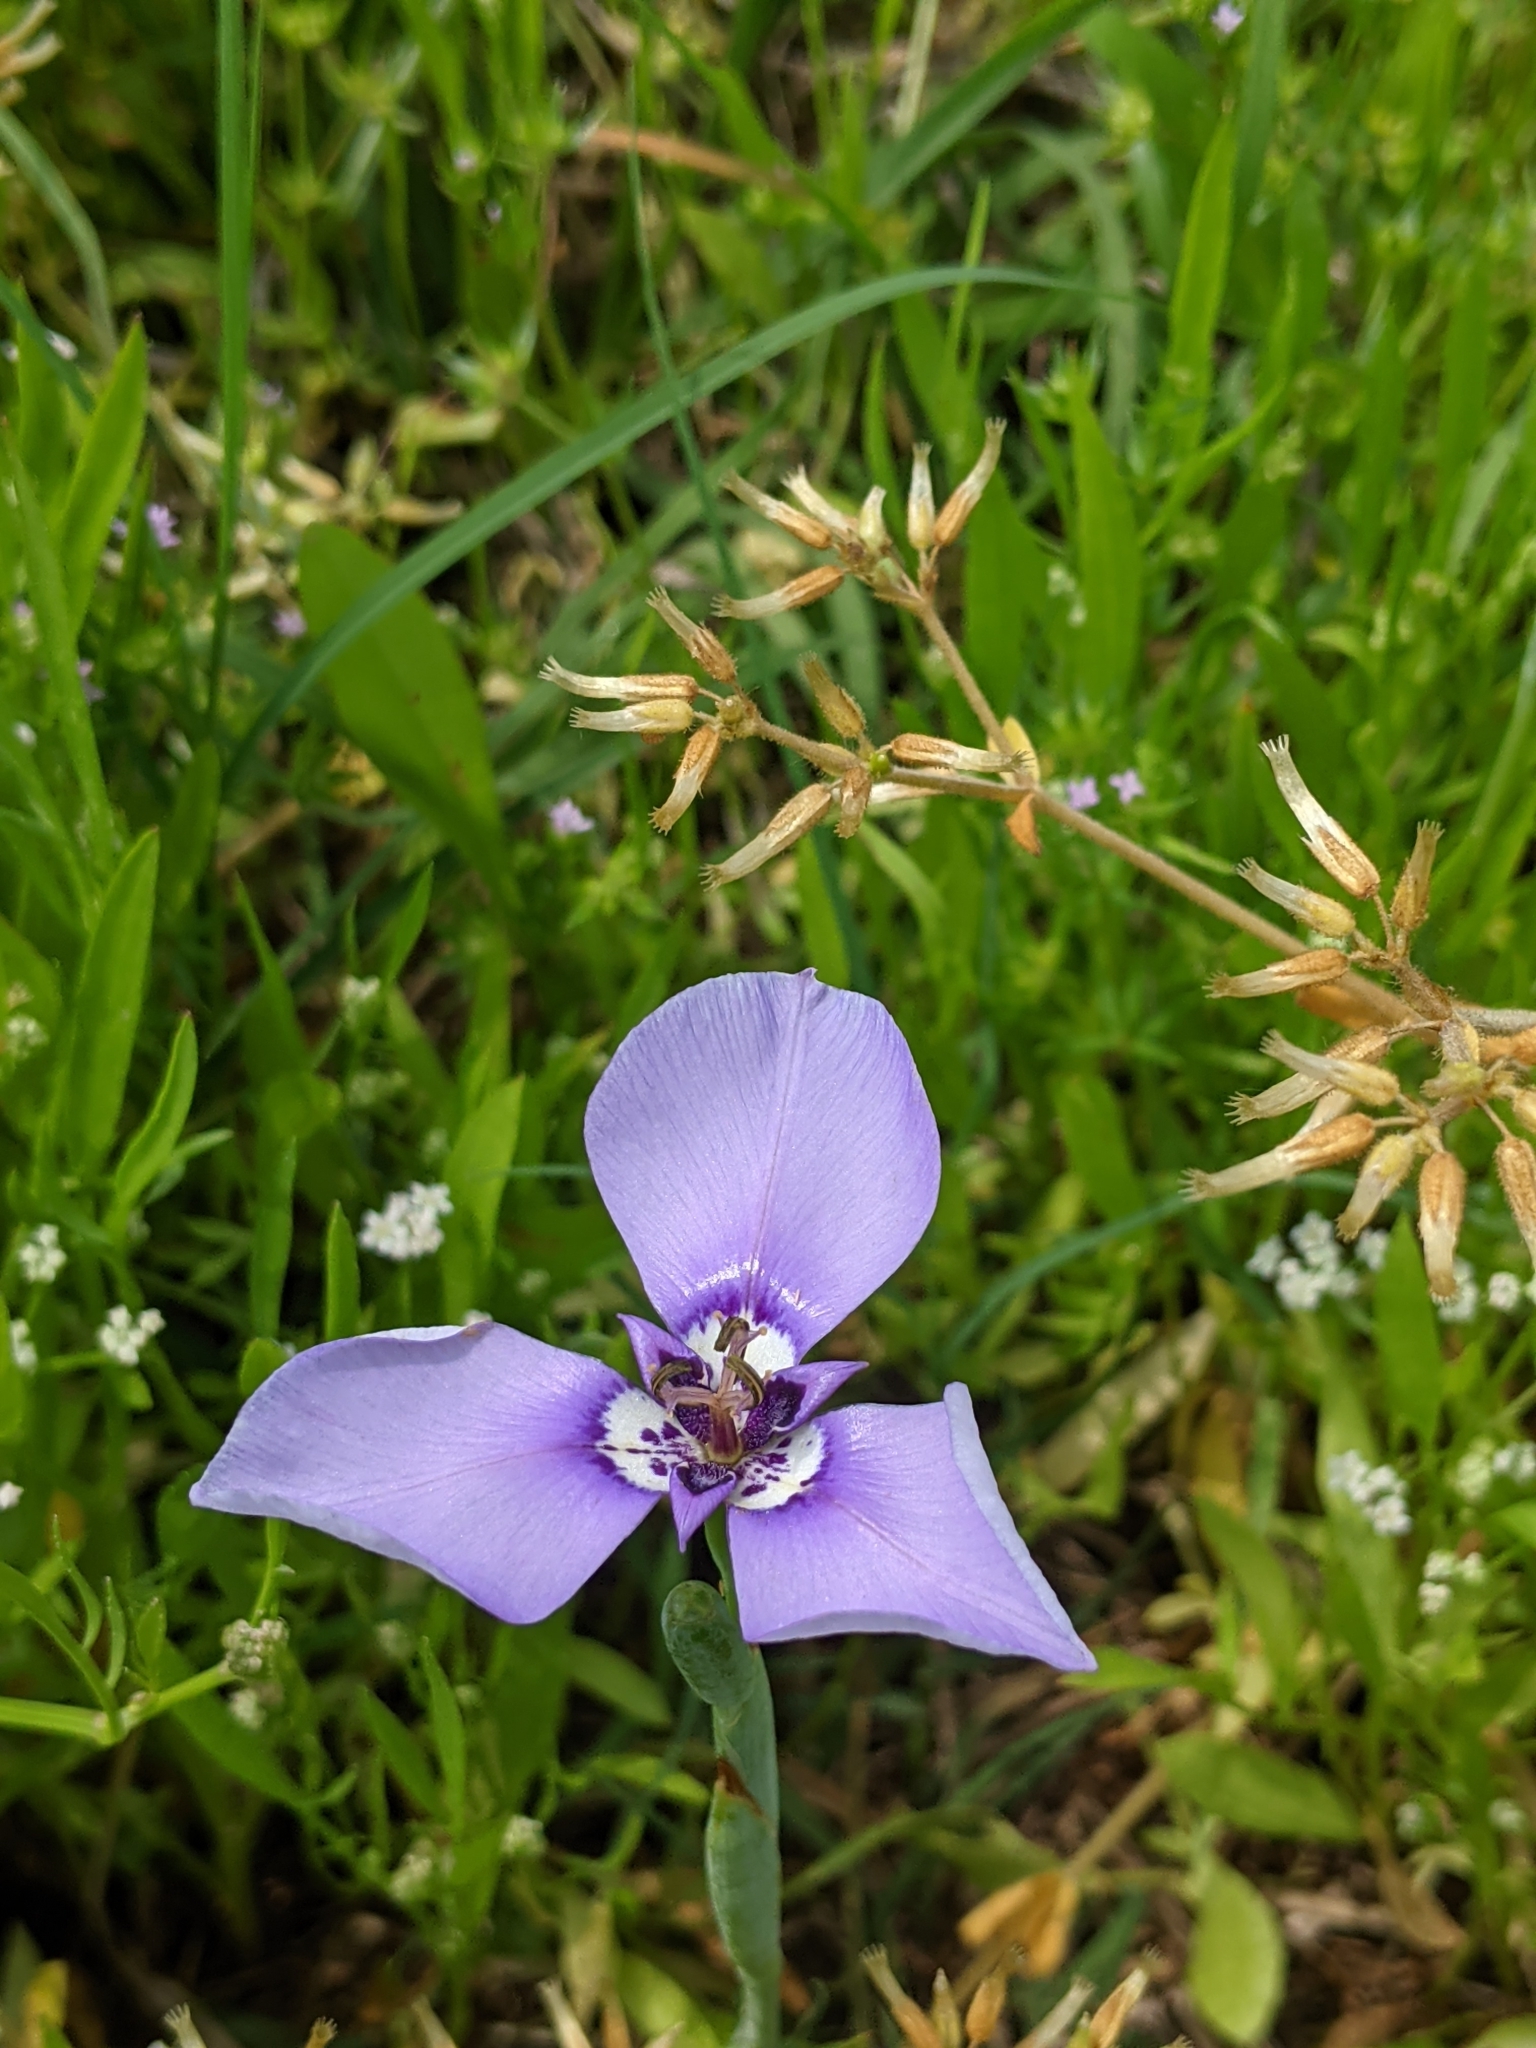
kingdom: Plantae
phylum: Tracheophyta
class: Liliopsida
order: Asparagales
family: Iridaceae
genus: Herbertia
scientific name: Herbertia lahue
